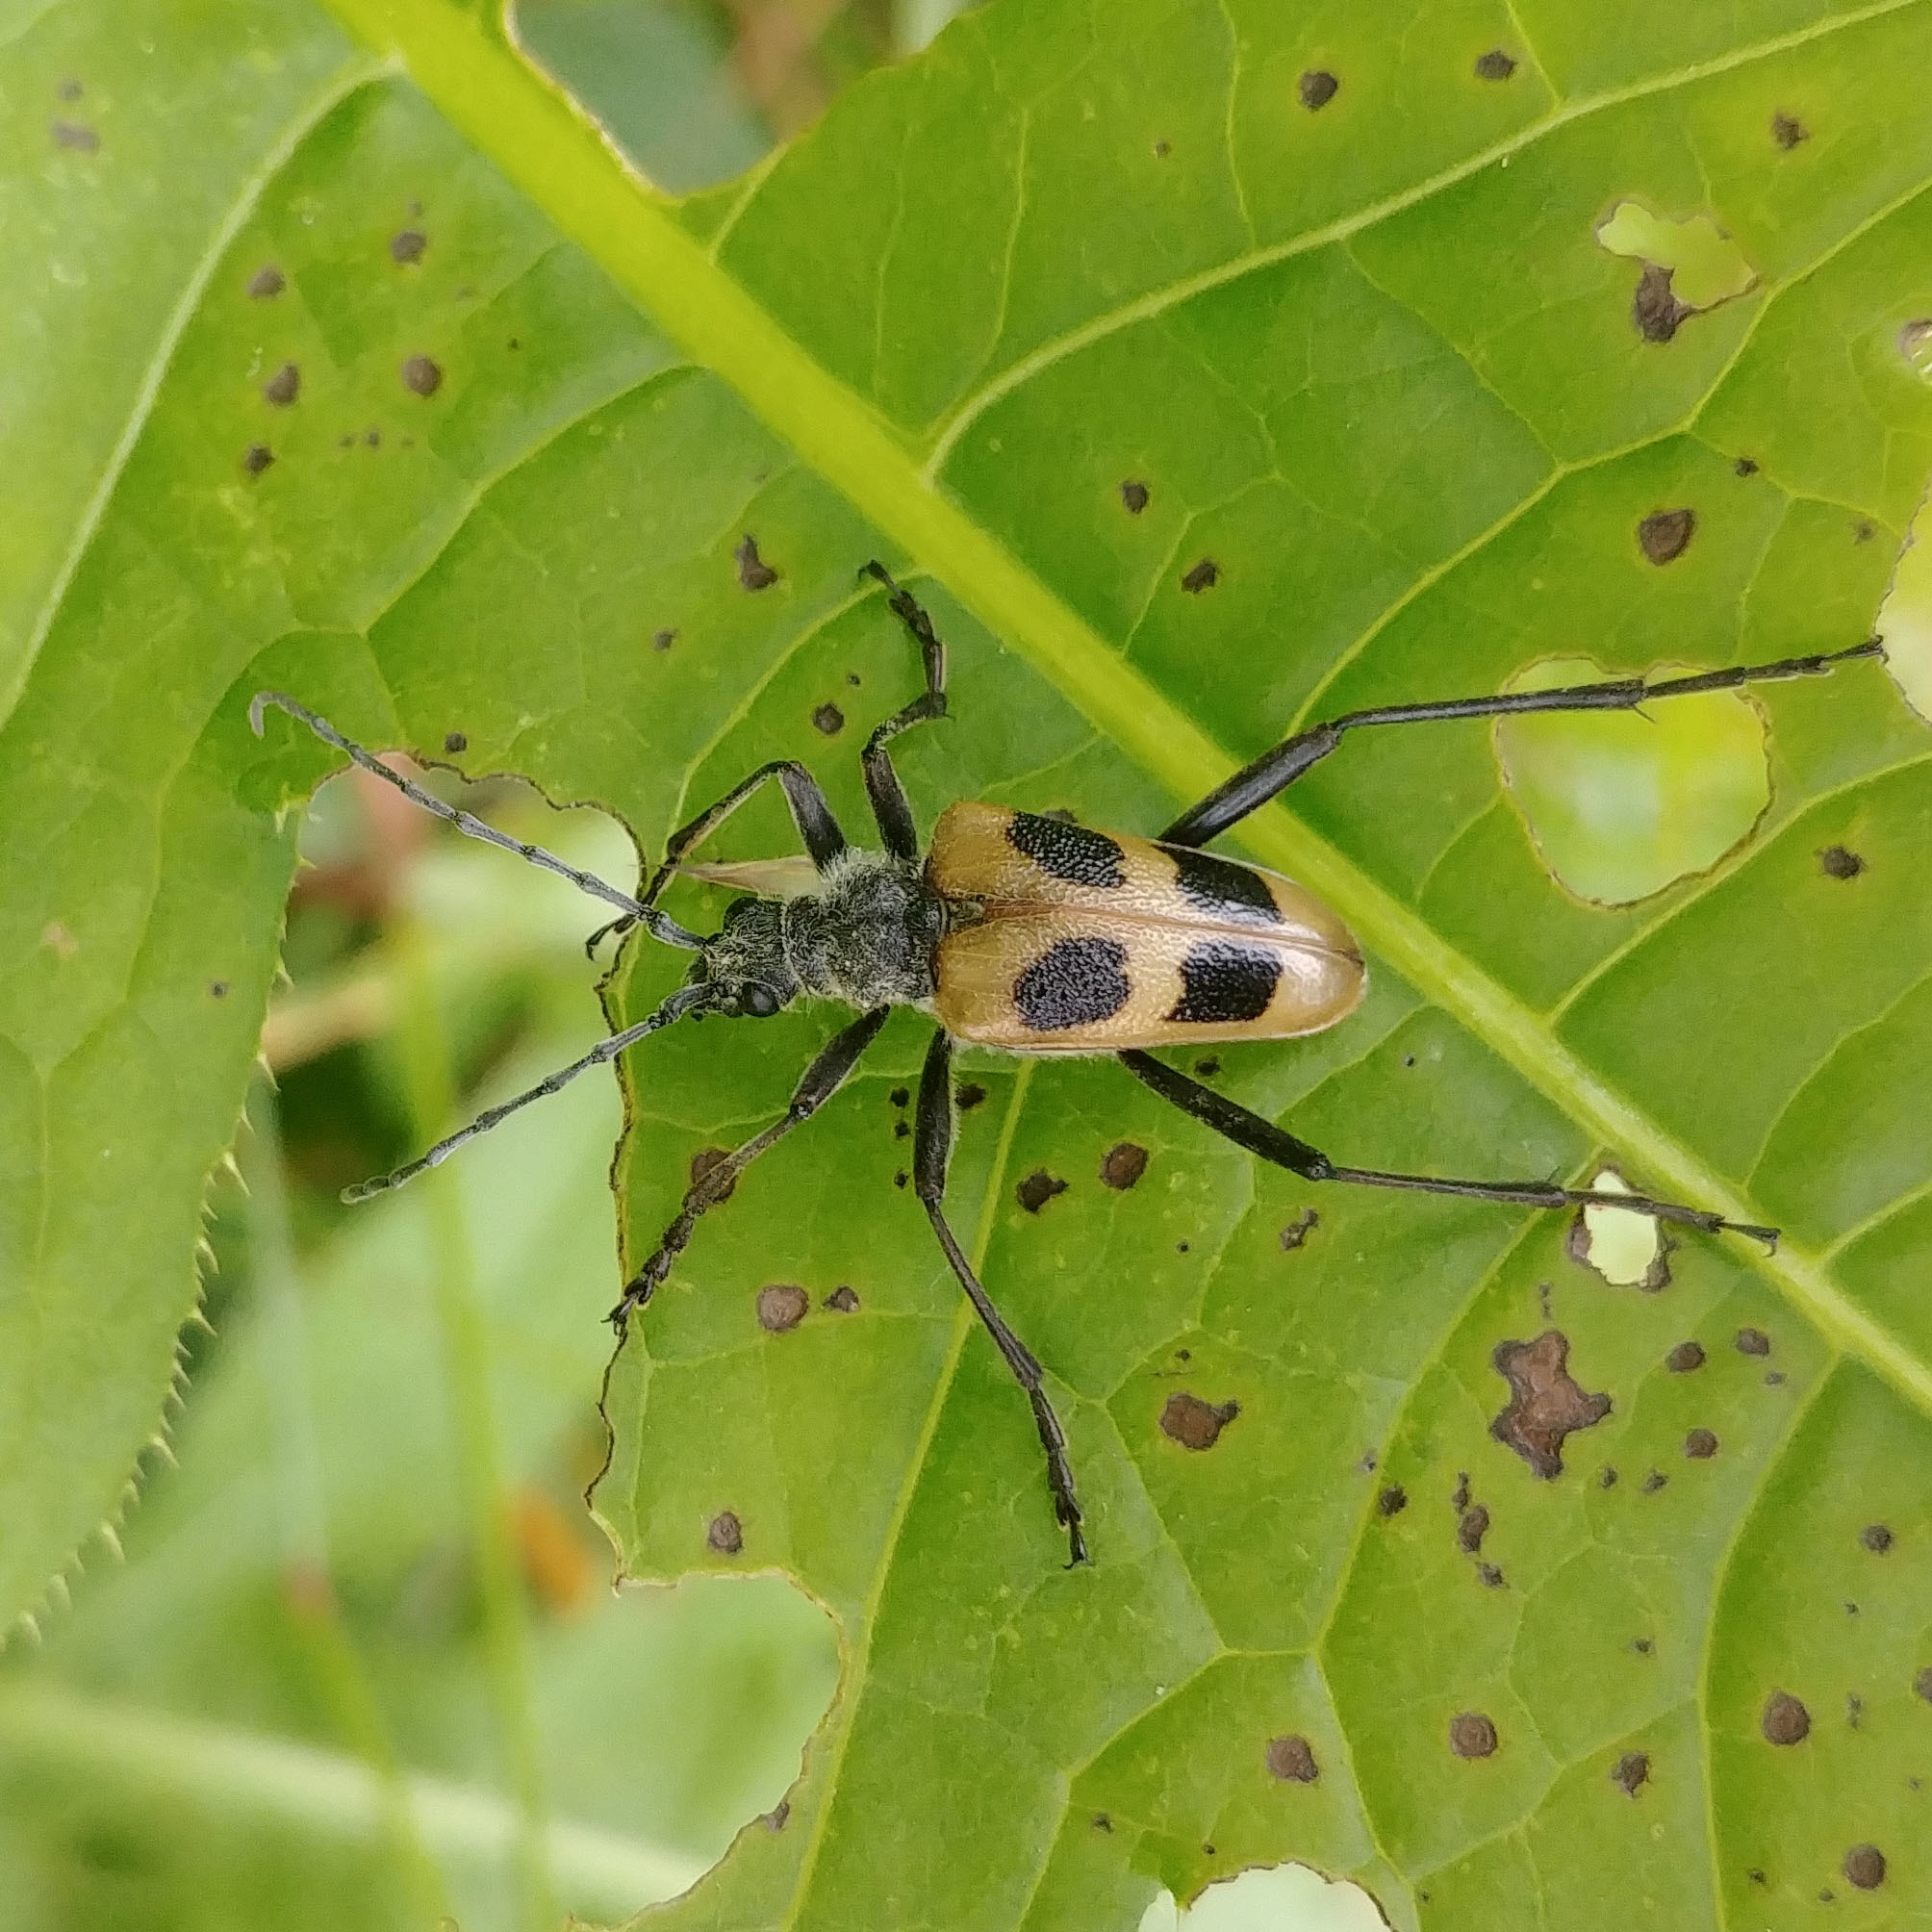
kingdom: Animalia
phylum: Arthropoda
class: Insecta
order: Coleoptera
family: Cerambycidae
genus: Pachyta
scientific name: Pachyta quadrimaculata
